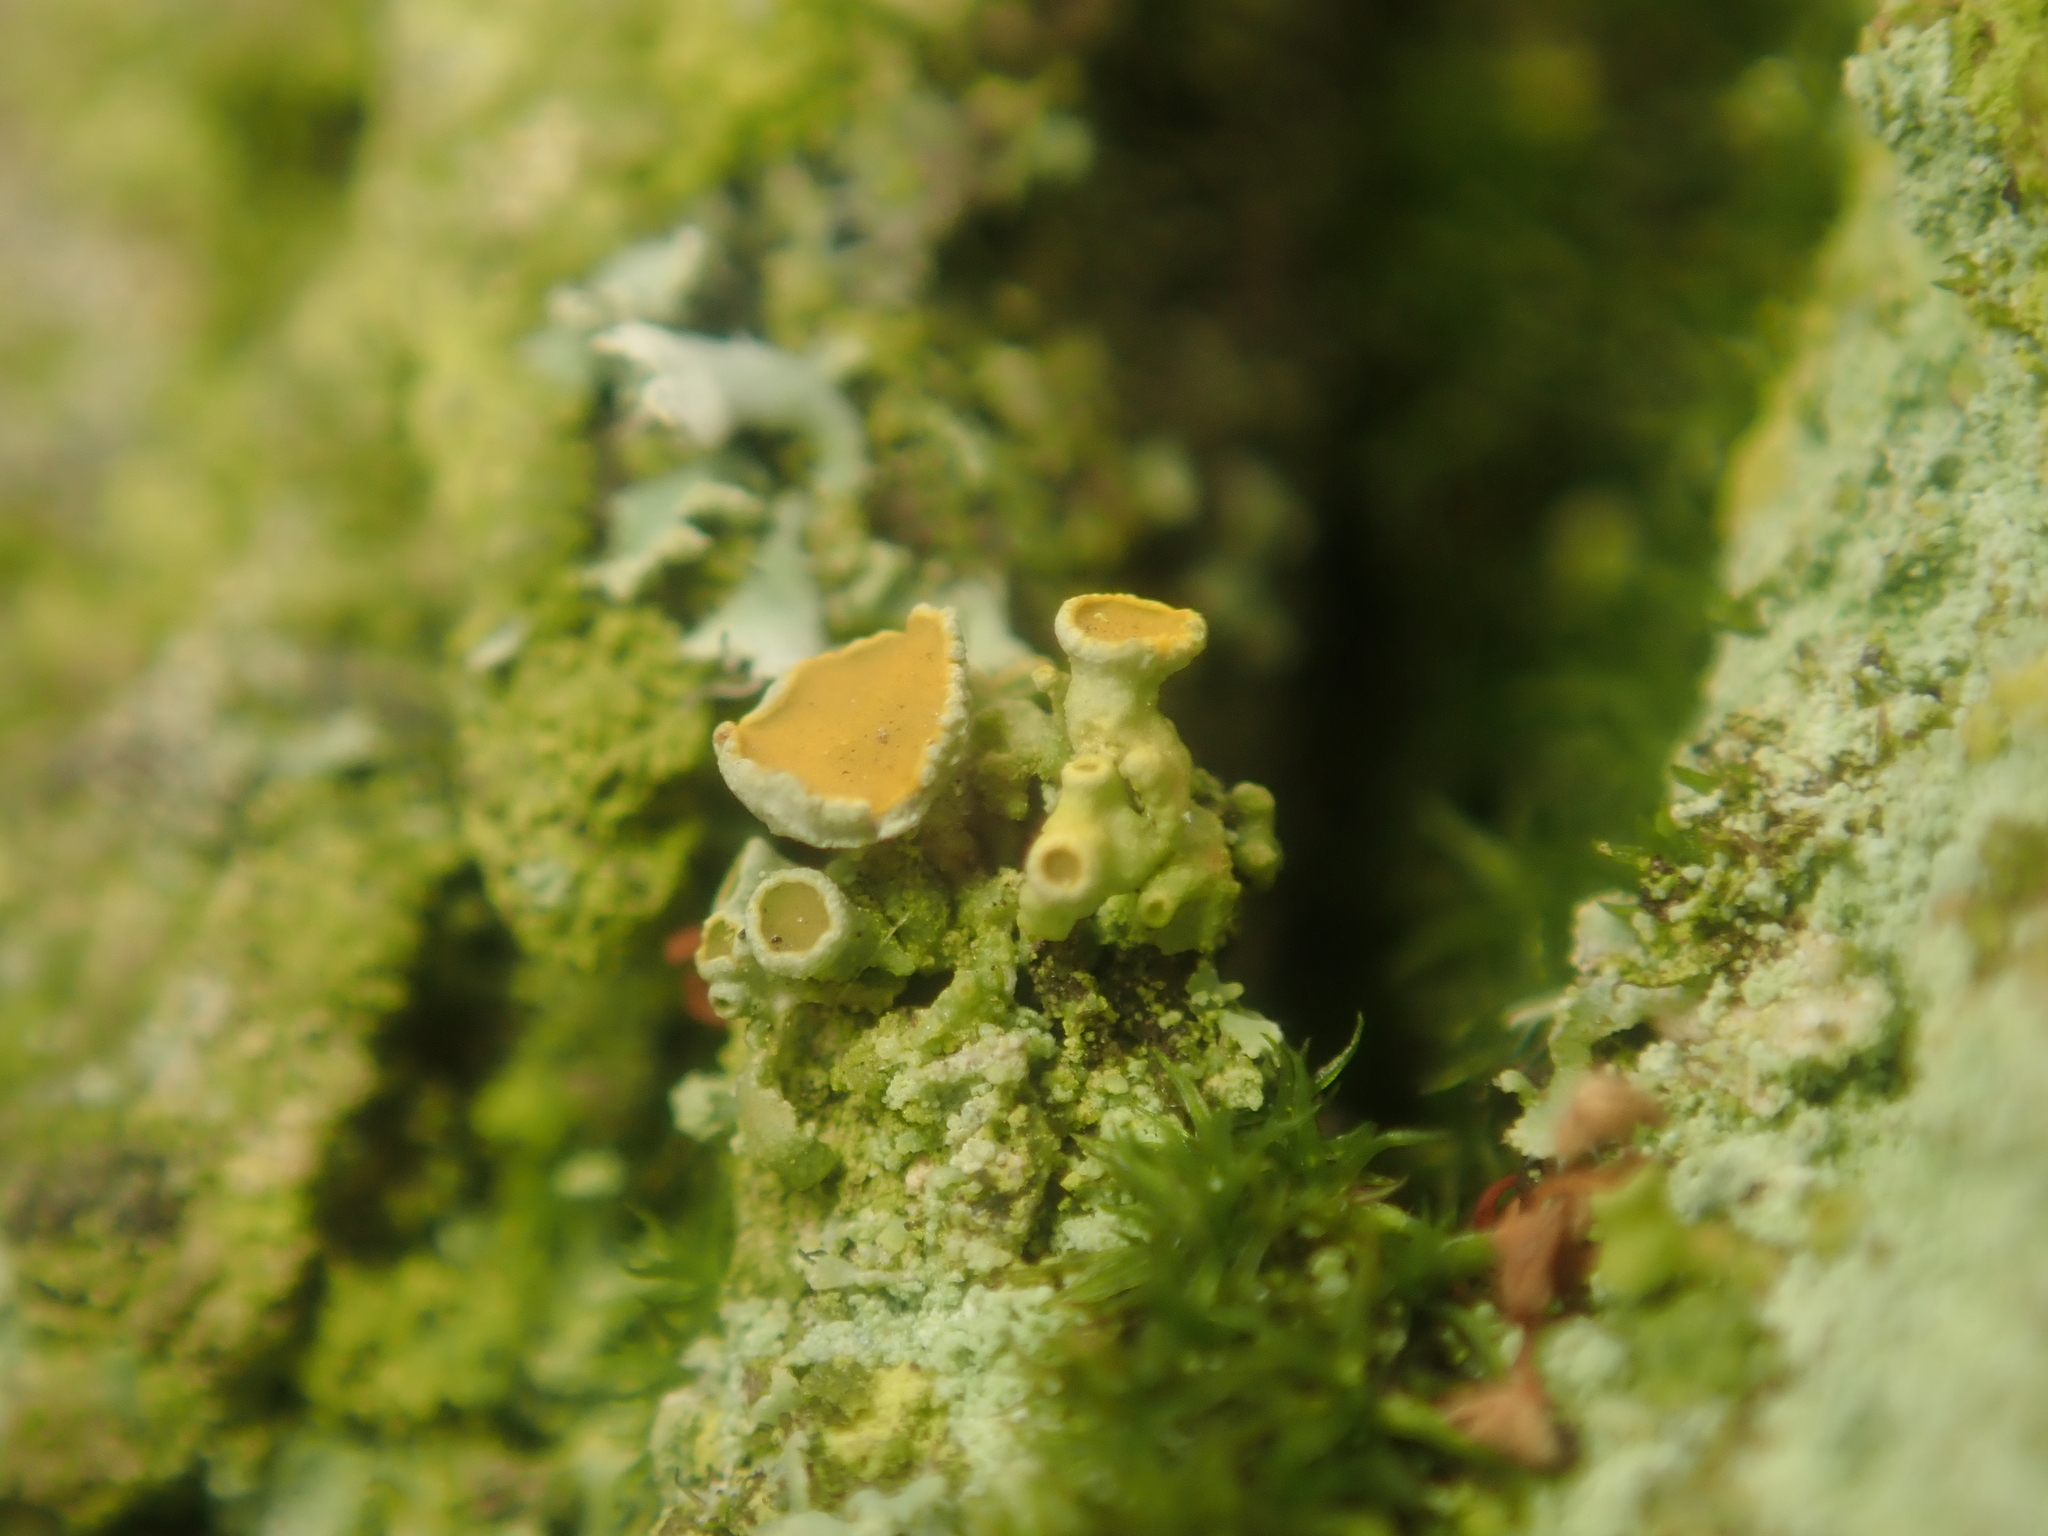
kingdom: Fungi
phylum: Ascomycota
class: Lecanoromycetes
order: Teloschistales
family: Teloschistaceae
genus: Polycauliona
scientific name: Polycauliona polycarpa
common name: Pin-cushion sunburst lichen
